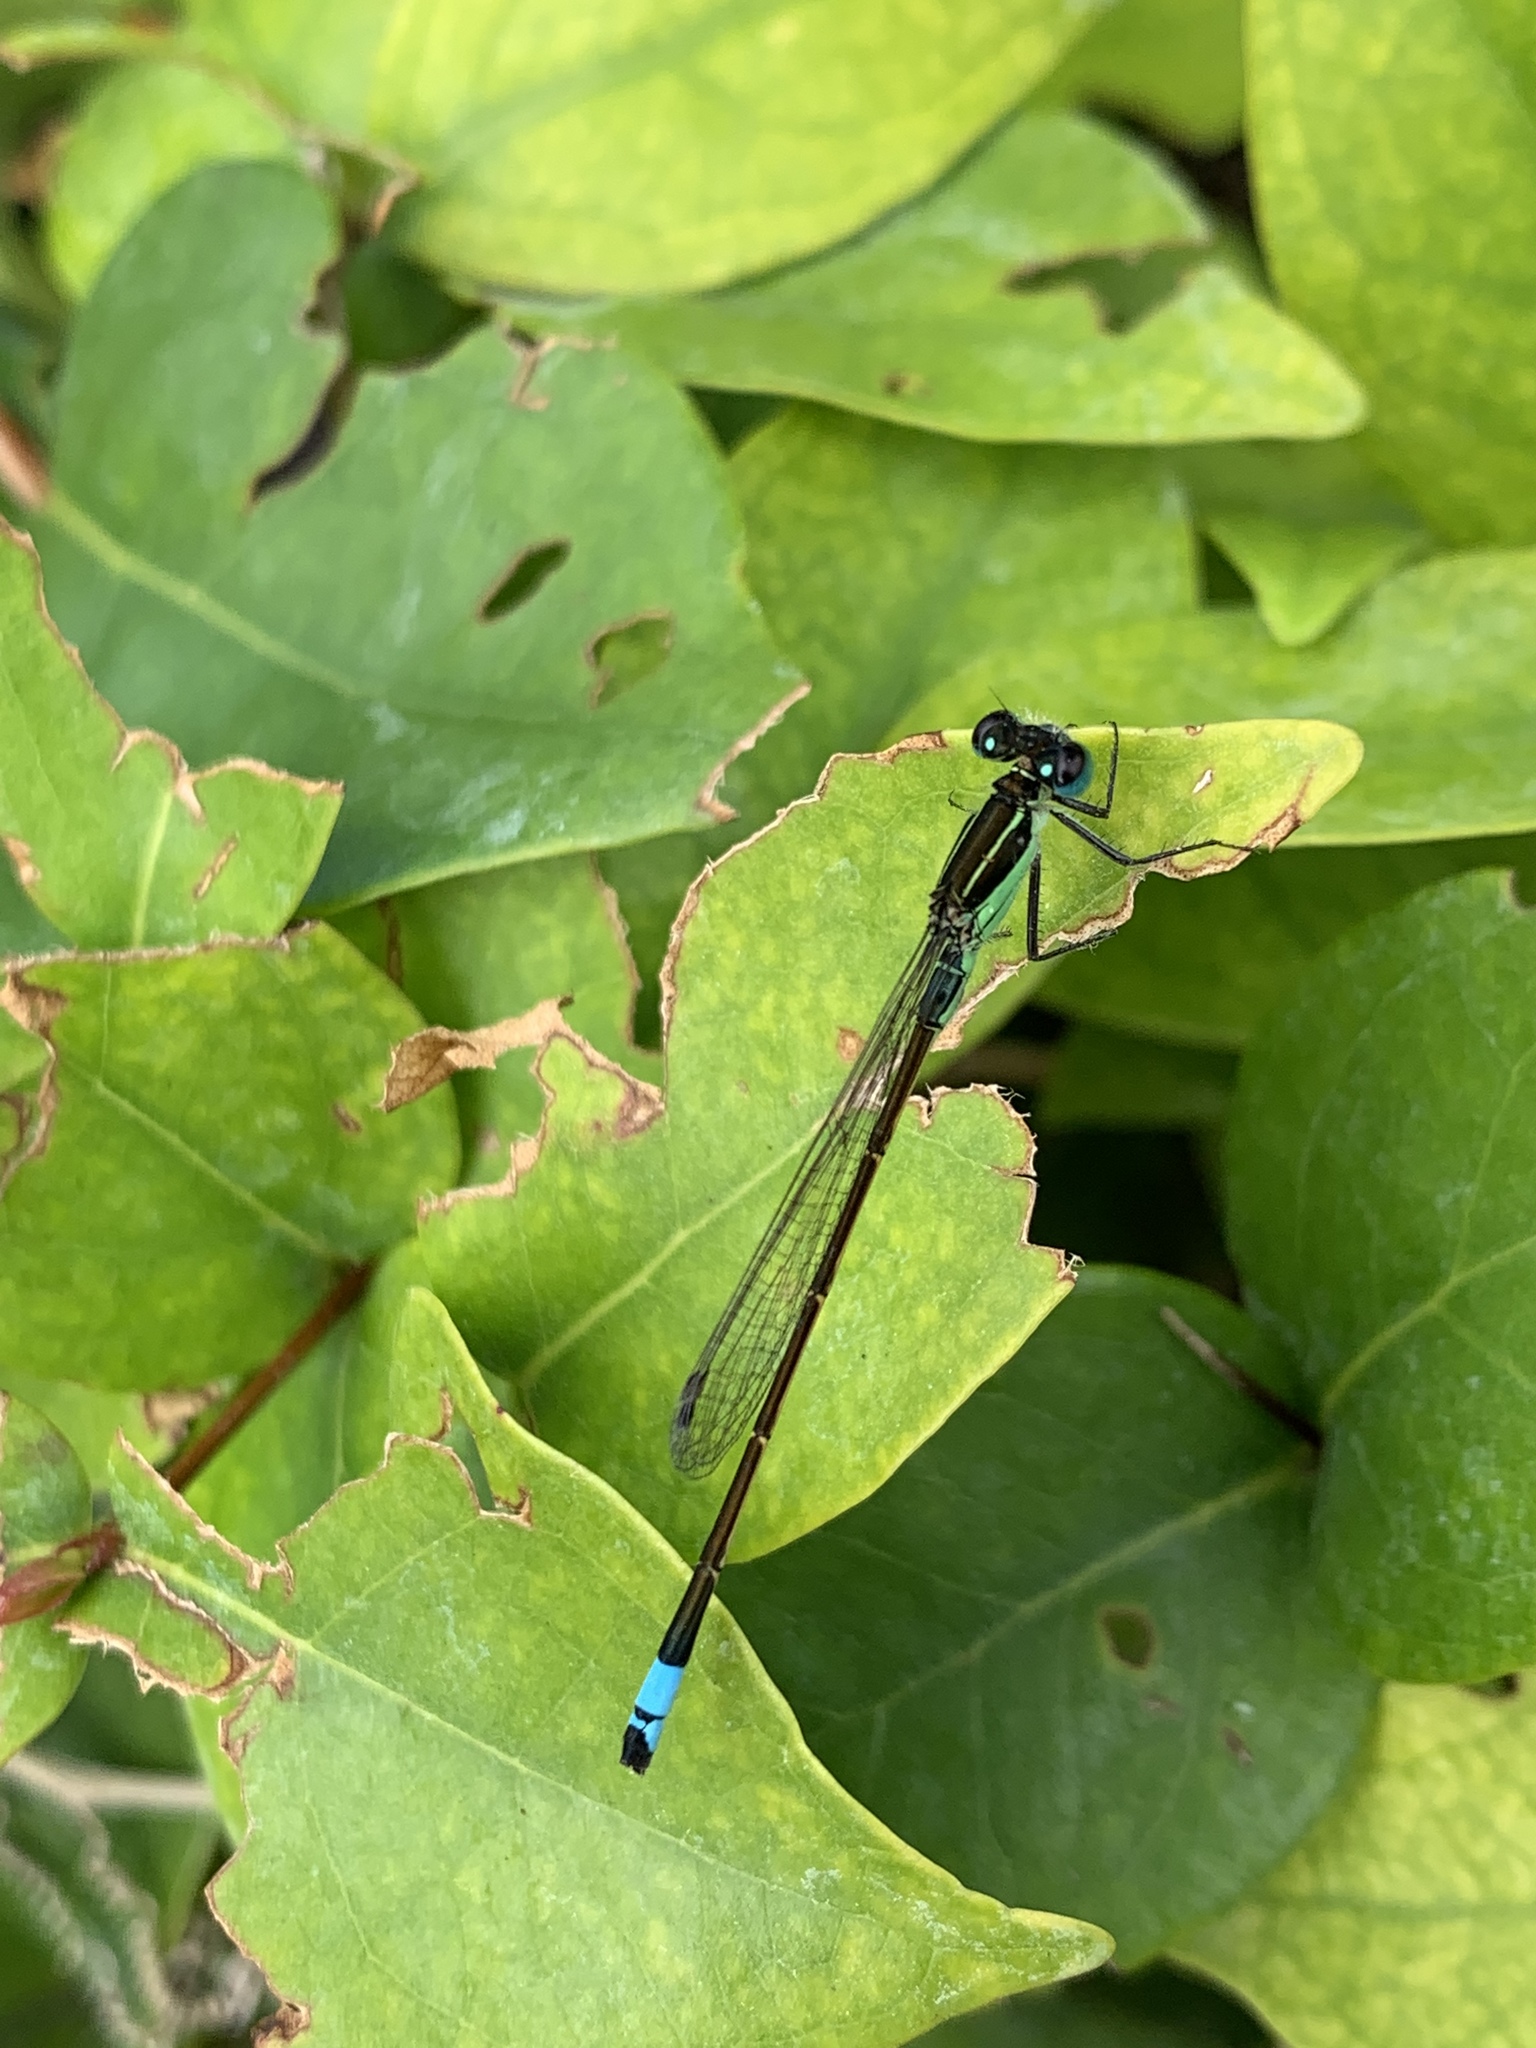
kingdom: Animalia
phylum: Arthropoda
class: Insecta
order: Odonata
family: Coenagrionidae
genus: Ischnura
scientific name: Ischnura ramburii
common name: Rambur's forktail
